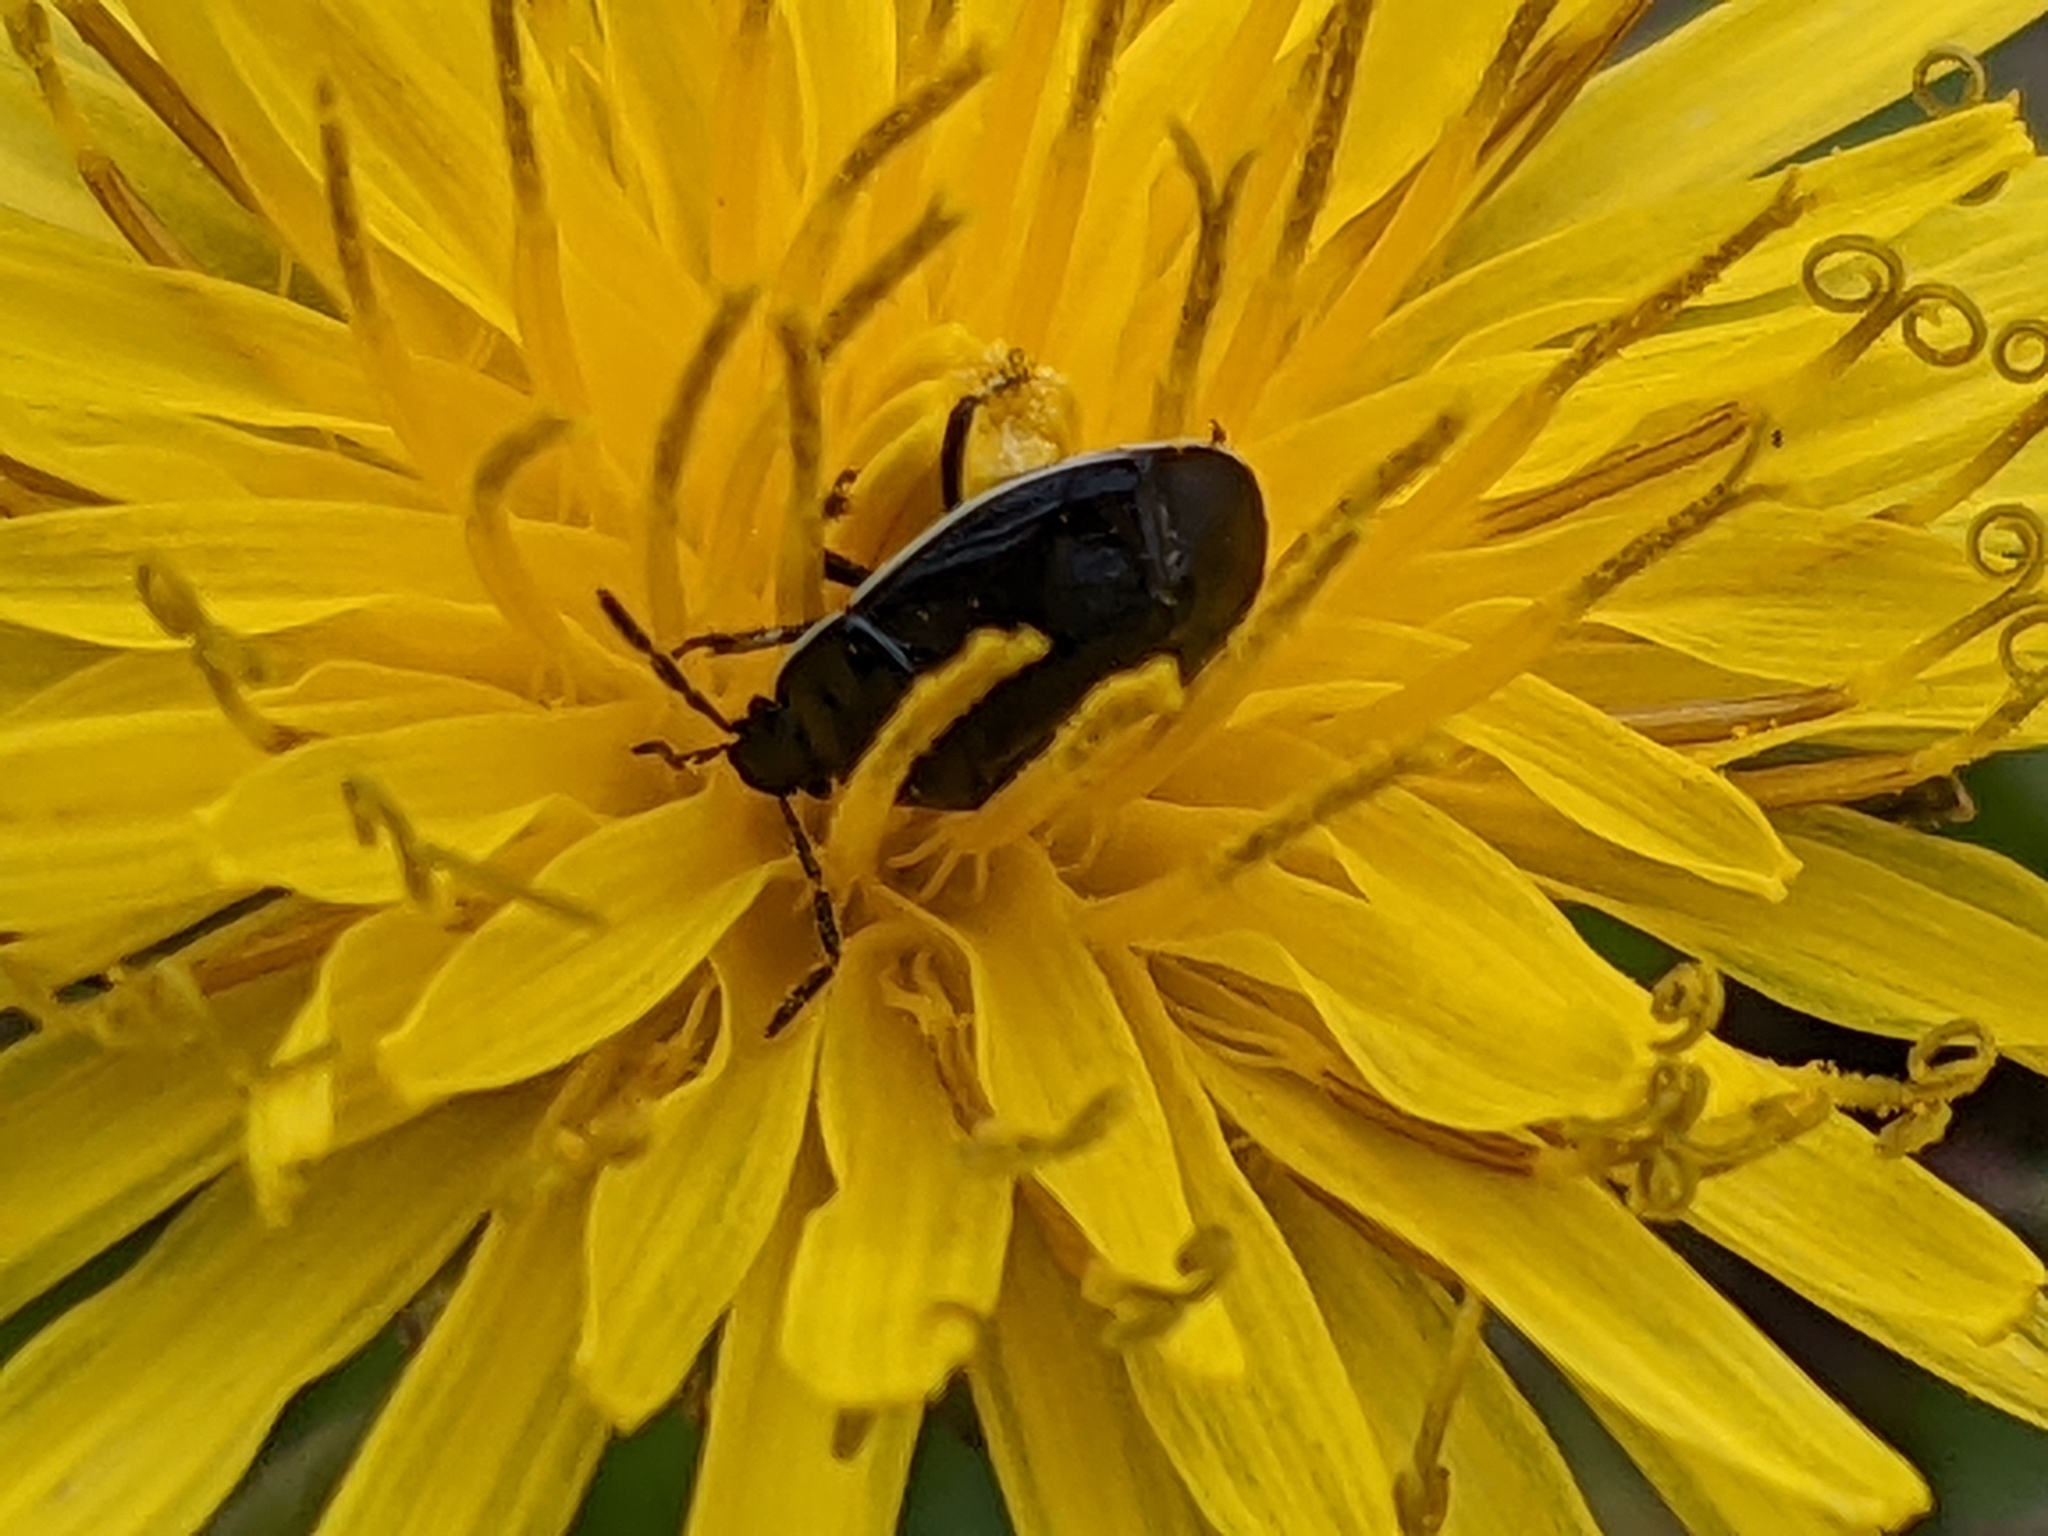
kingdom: Animalia
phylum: Arthropoda
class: Insecta
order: Hemiptera
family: Cydnidae
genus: Sehirus
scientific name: Sehirus cinctus
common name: White-margined burrower bug
